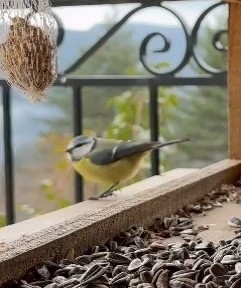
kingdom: Animalia
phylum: Chordata
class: Aves
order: Passeriformes
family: Paridae
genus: Cyanistes
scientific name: Cyanistes caeruleus
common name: Eurasian blue tit
